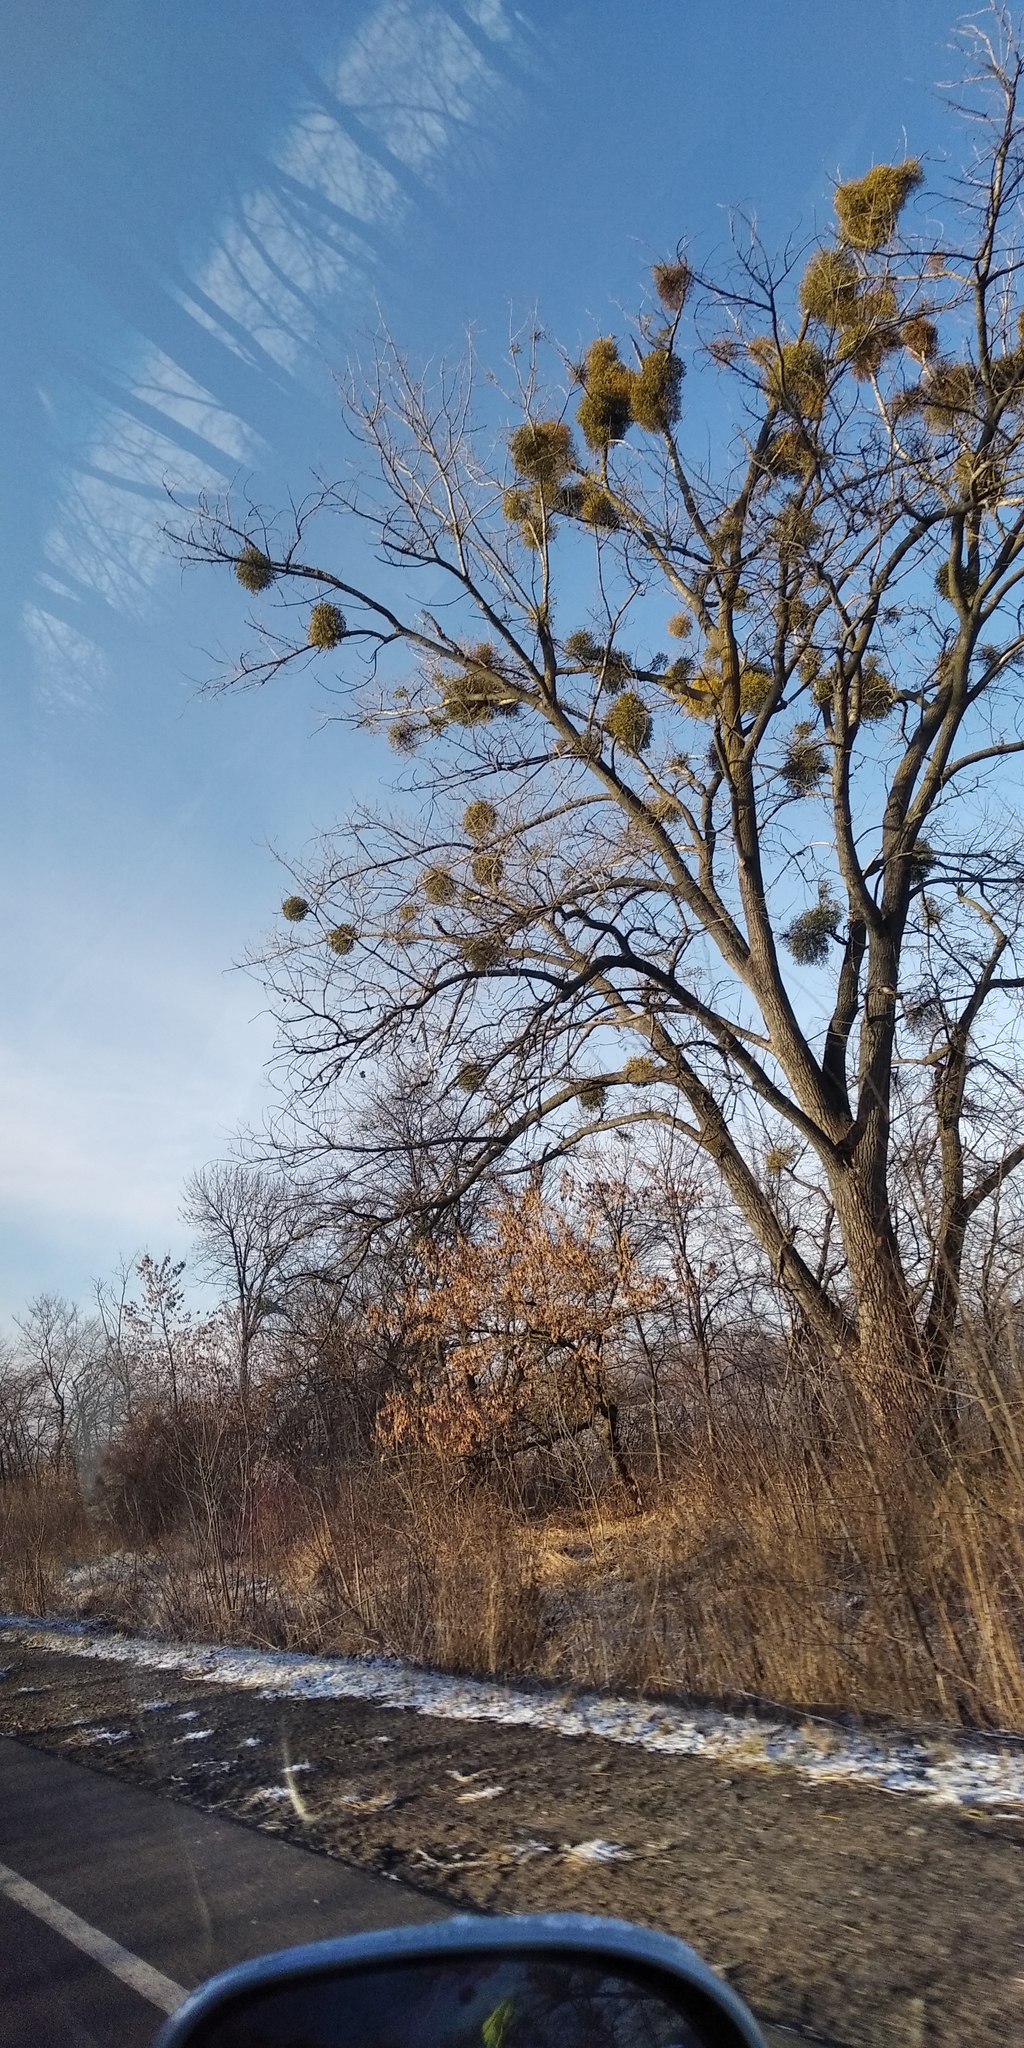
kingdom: Plantae
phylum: Tracheophyta
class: Magnoliopsida
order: Santalales
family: Viscaceae
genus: Viscum
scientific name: Viscum album
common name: Mistletoe
